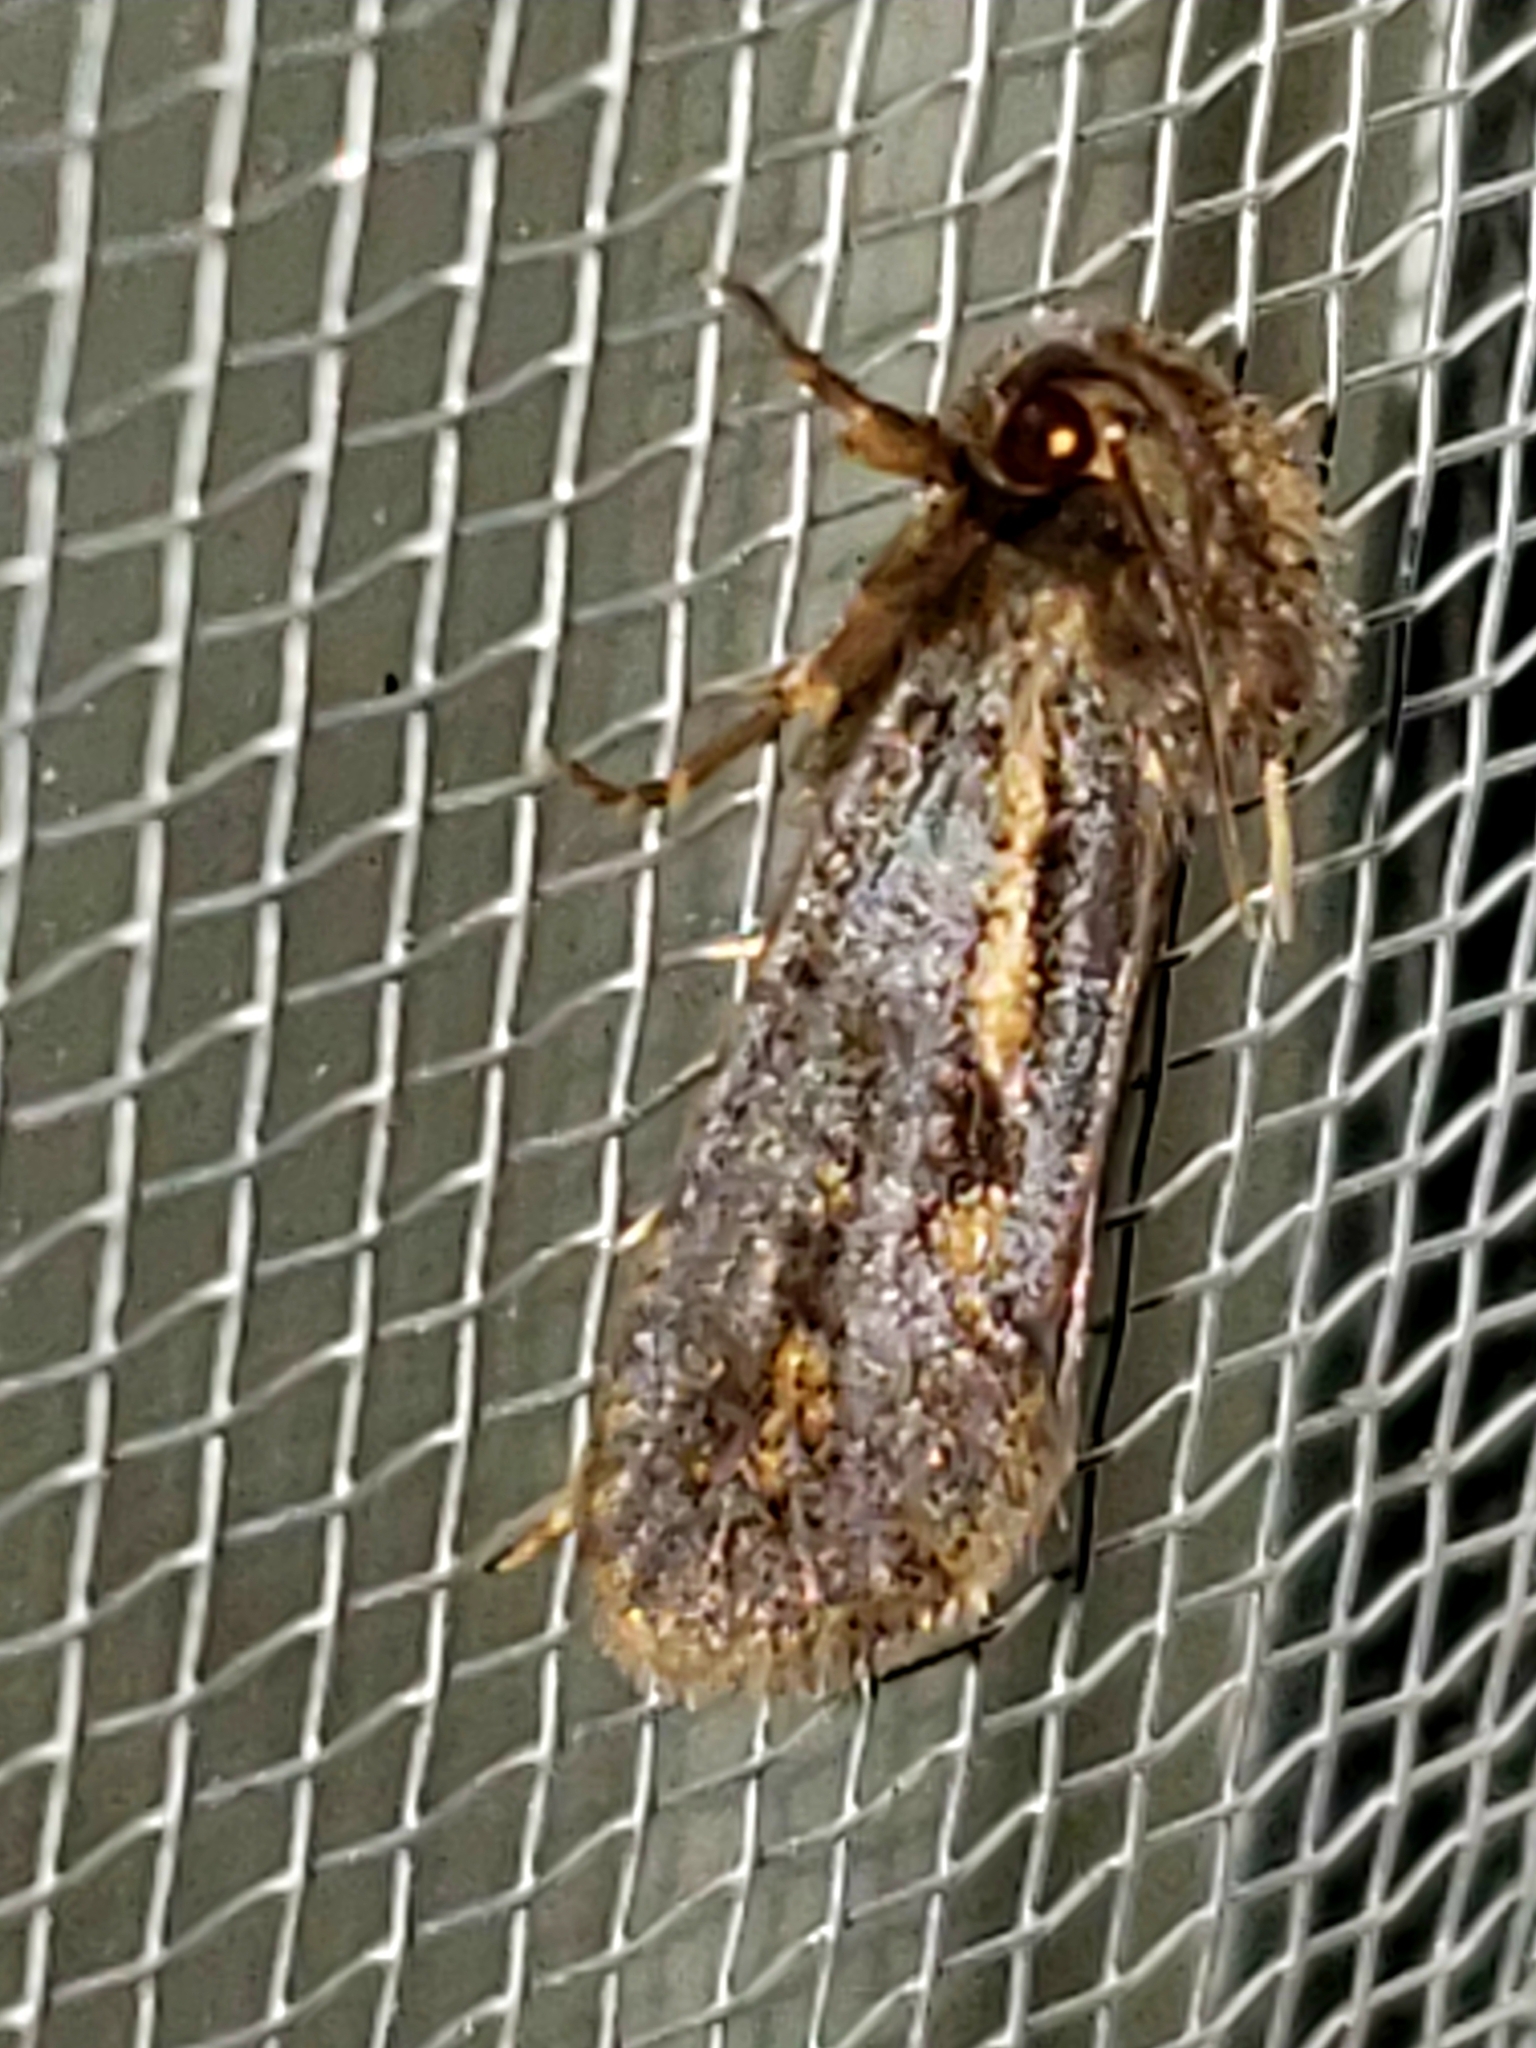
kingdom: Animalia
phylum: Arthropoda
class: Insecta
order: Lepidoptera
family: Tineidae
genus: Acrolophus
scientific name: Acrolophus popeanella
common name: Clemens' grass tubeworm moth
